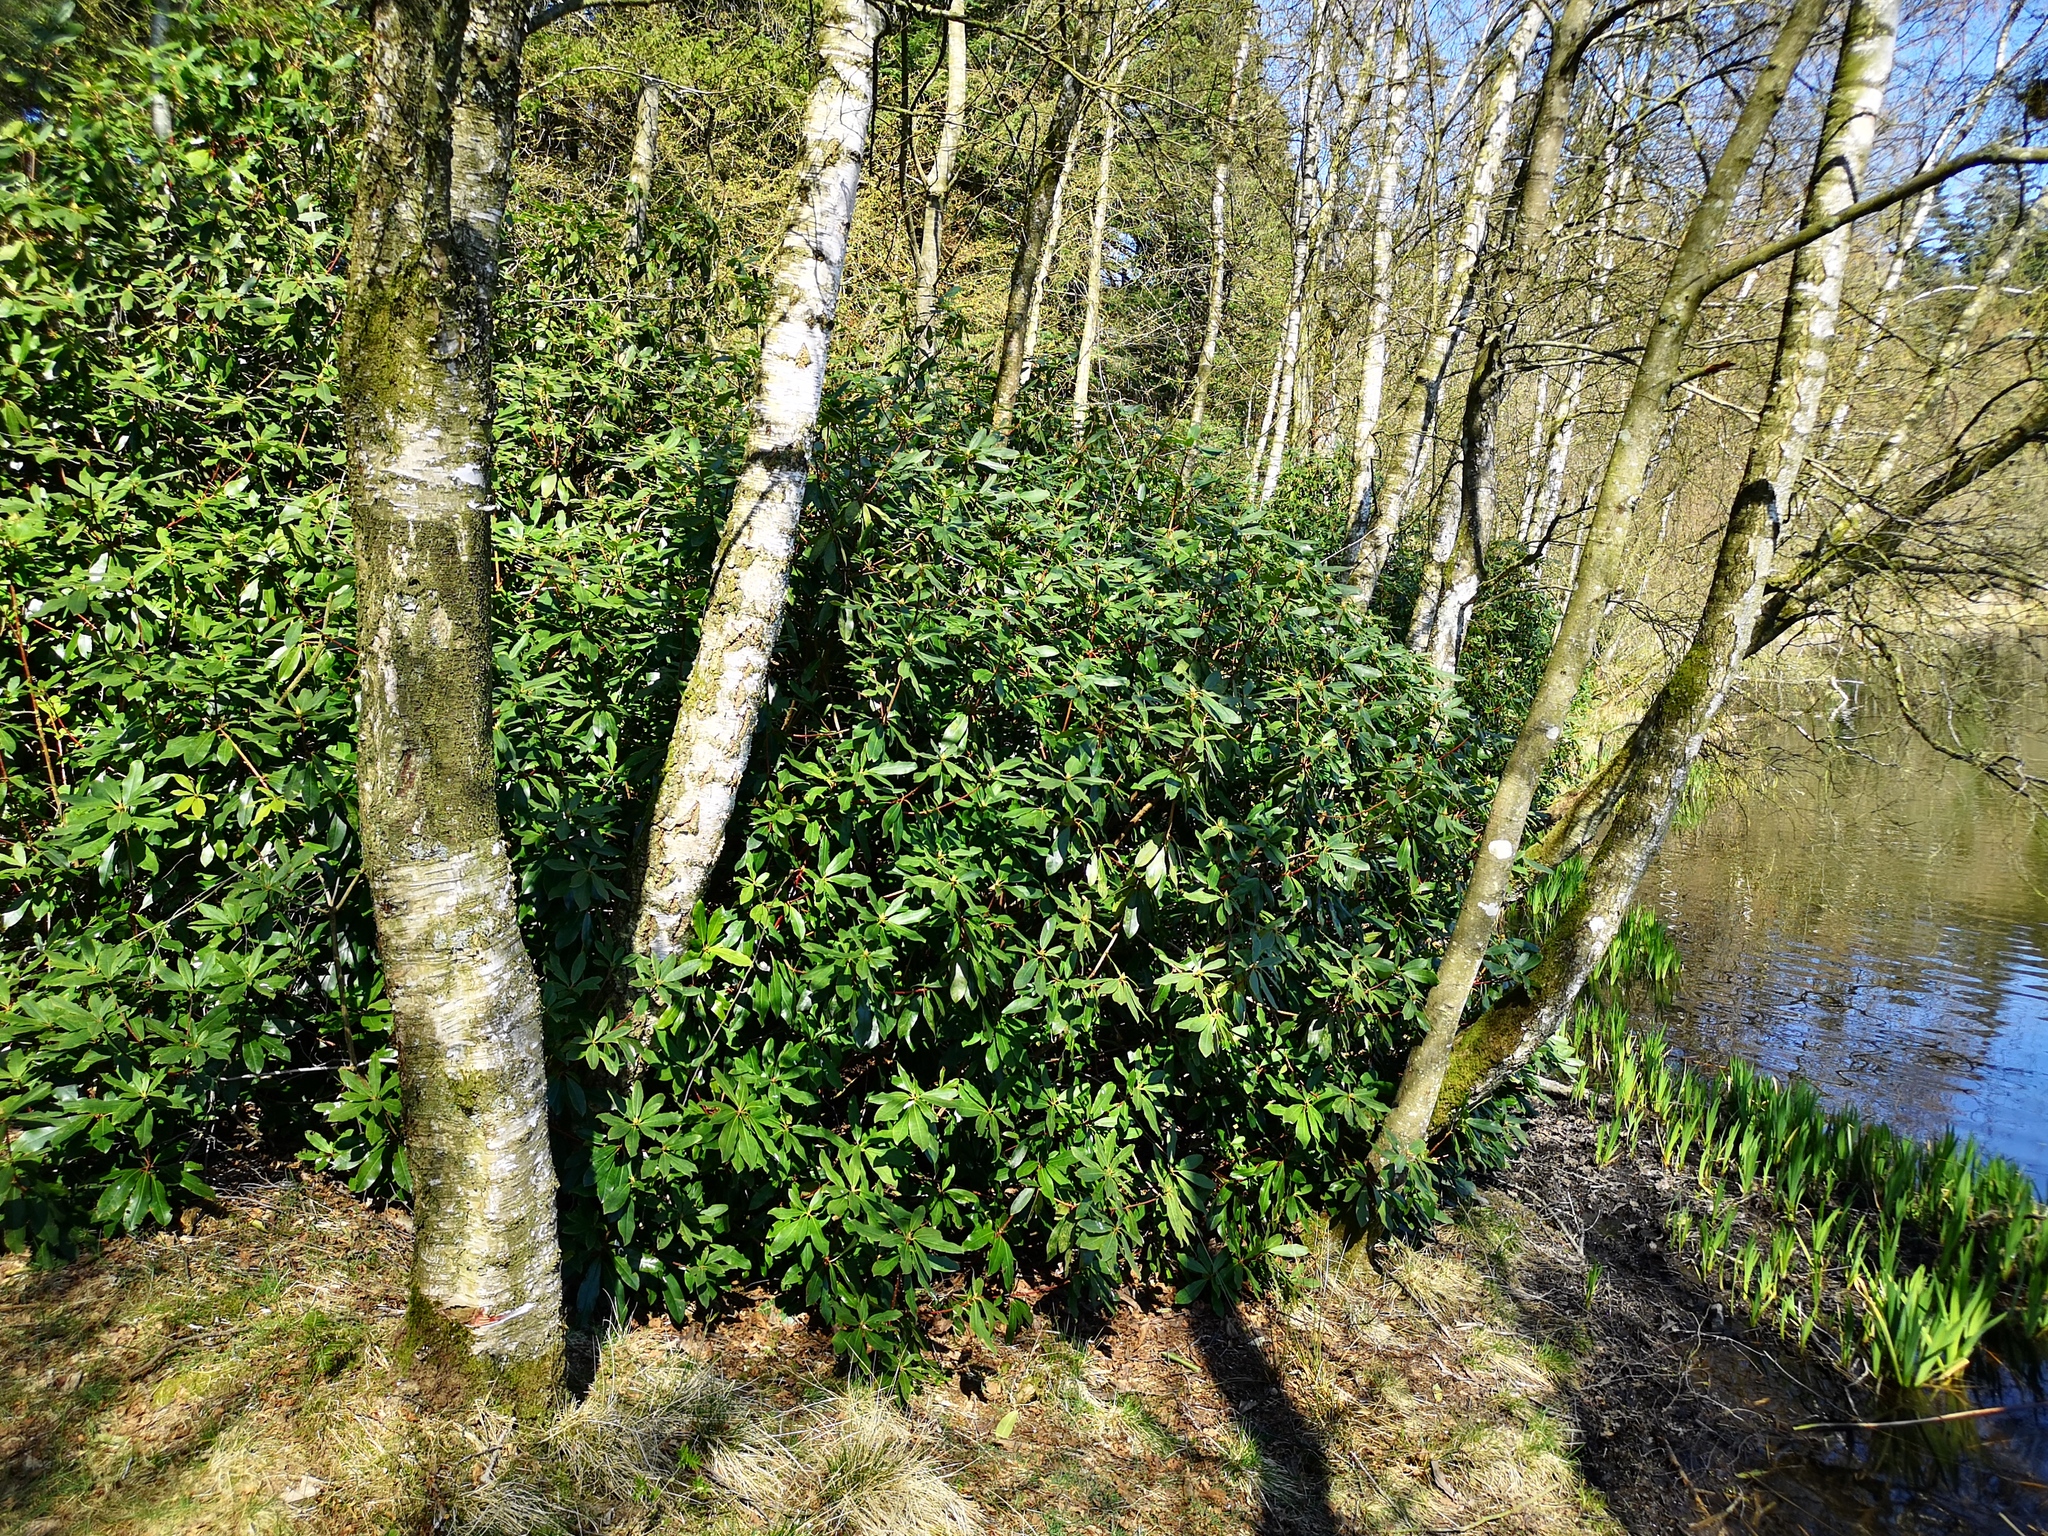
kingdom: Plantae
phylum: Tracheophyta
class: Magnoliopsida
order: Ericales
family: Ericaceae
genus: Rhododendron
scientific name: Rhododendron ponticum
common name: Rhododendron
